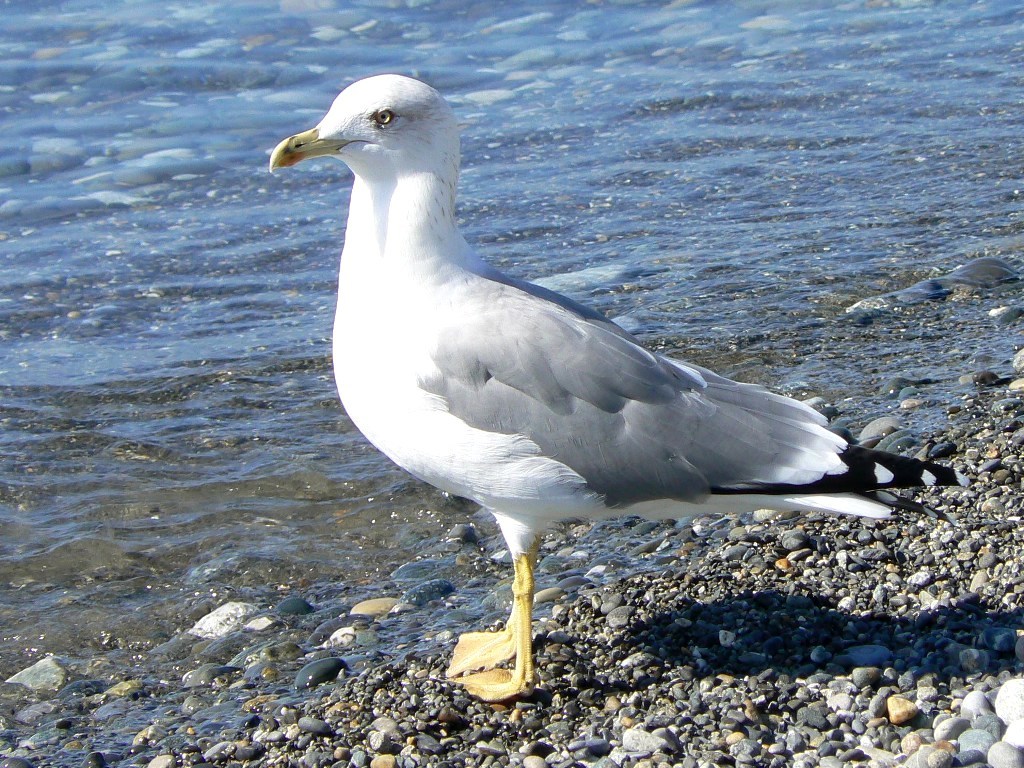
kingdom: Animalia
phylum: Chordata
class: Aves
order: Charadriiformes
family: Laridae
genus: Larus
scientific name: Larus michahellis
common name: Yellow-legged gull
